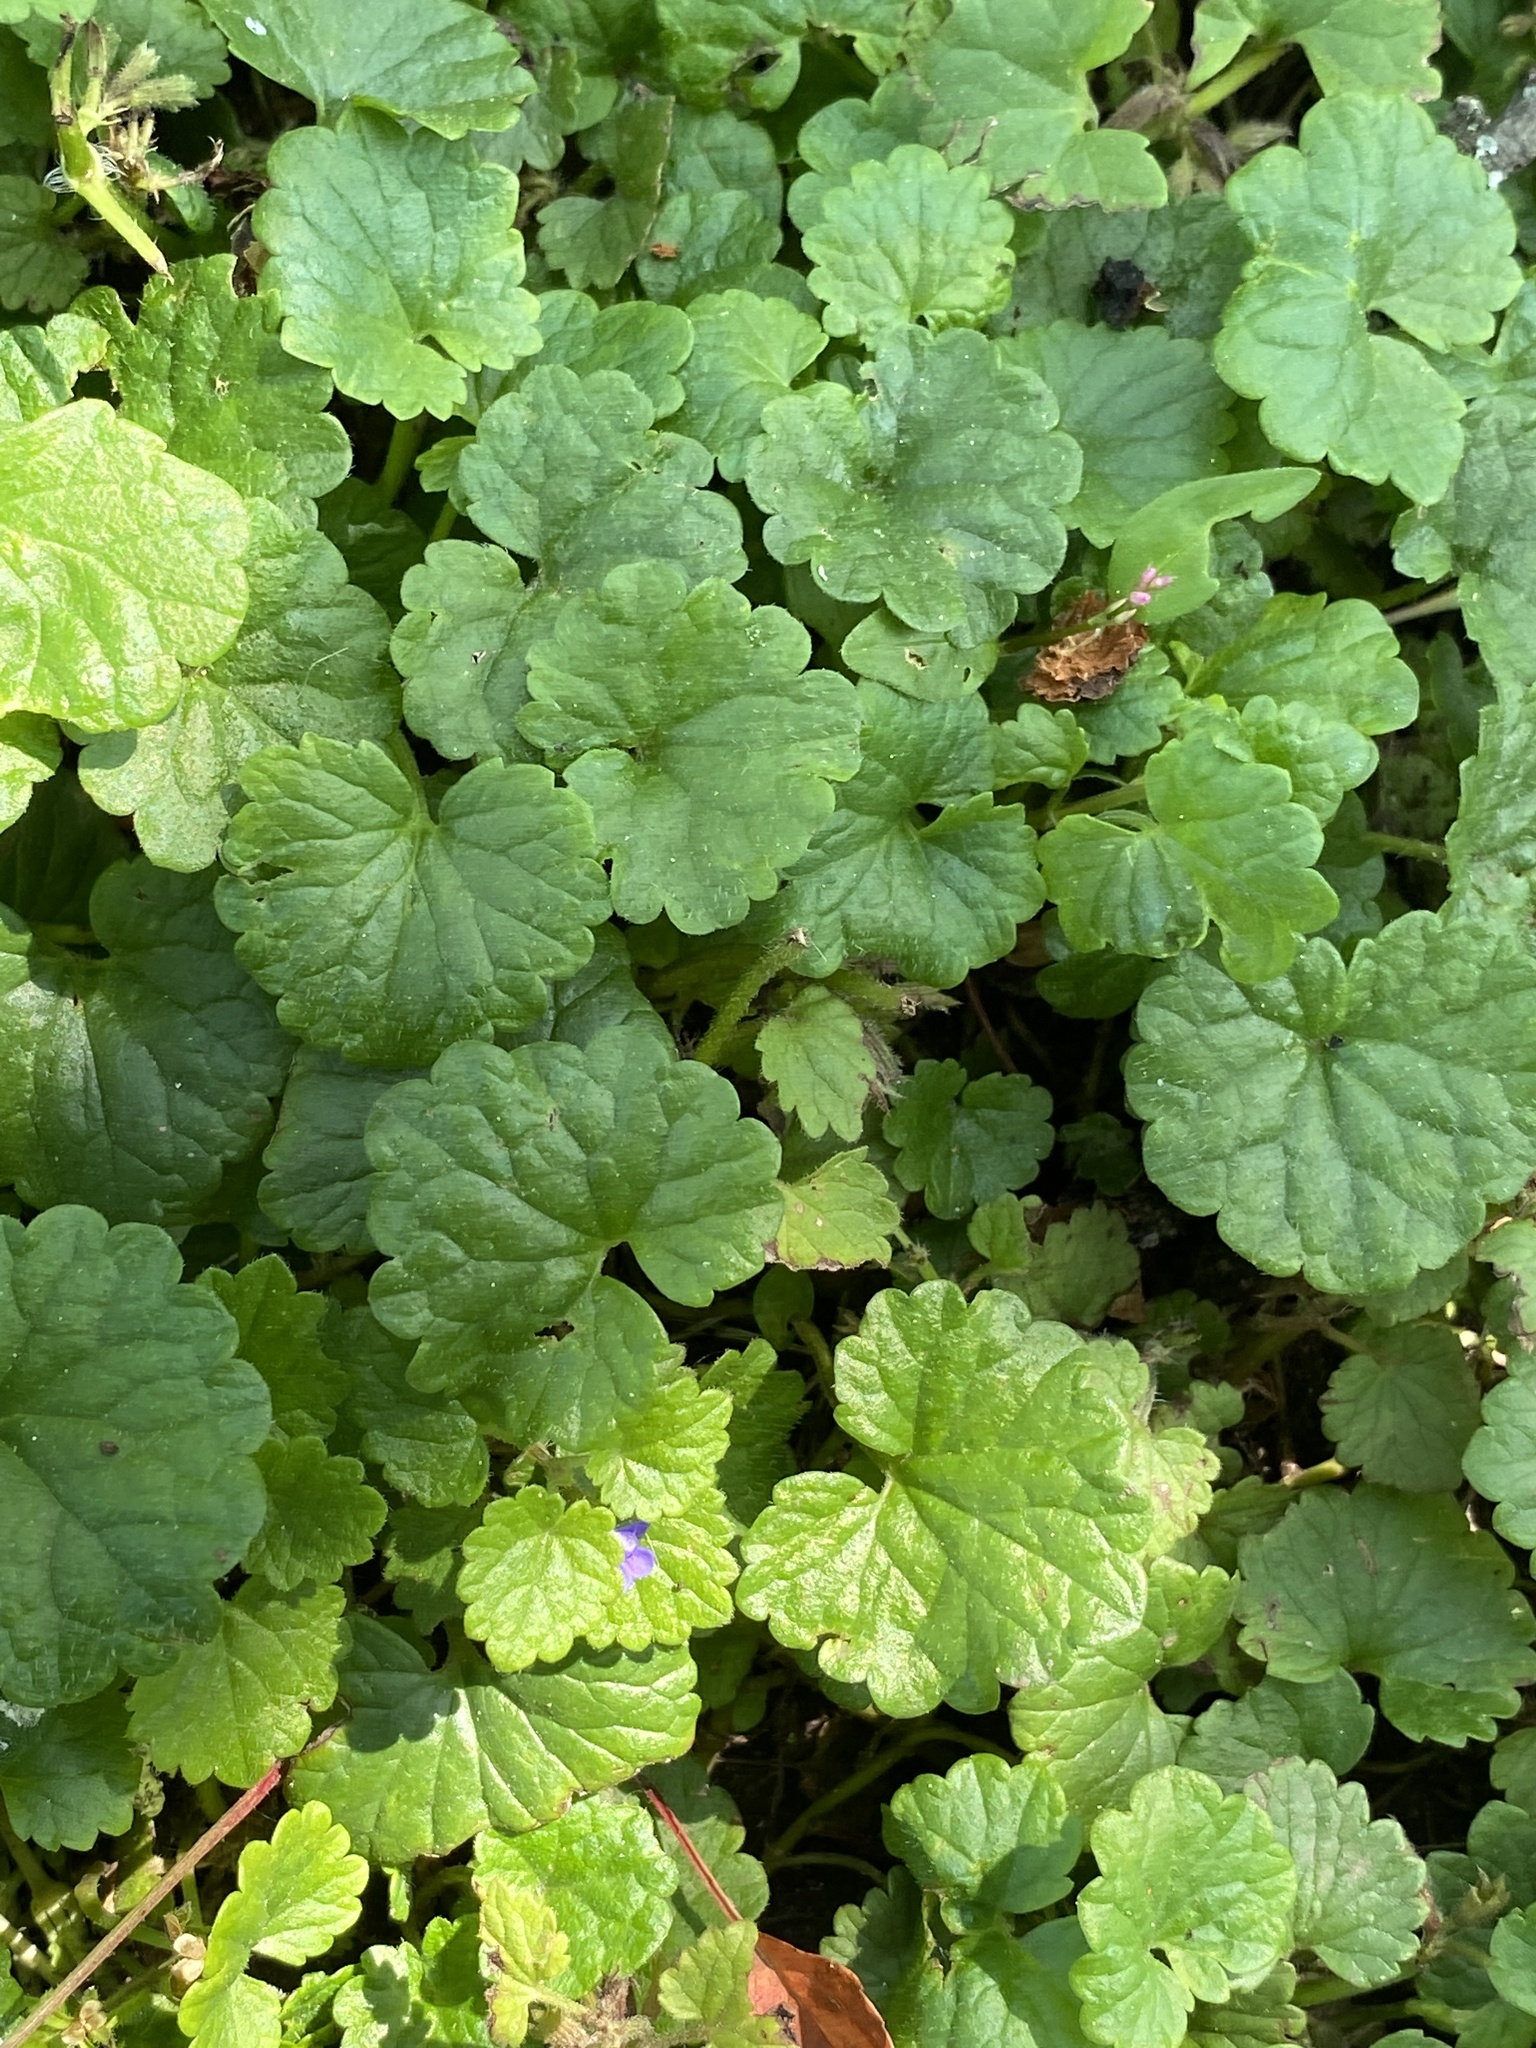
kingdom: Plantae
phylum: Tracheophyta
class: Magnoliopsida
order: Lamiales
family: Lamiaceae
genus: Glechoma
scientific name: Glechoma hederacea
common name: Ground ivy
